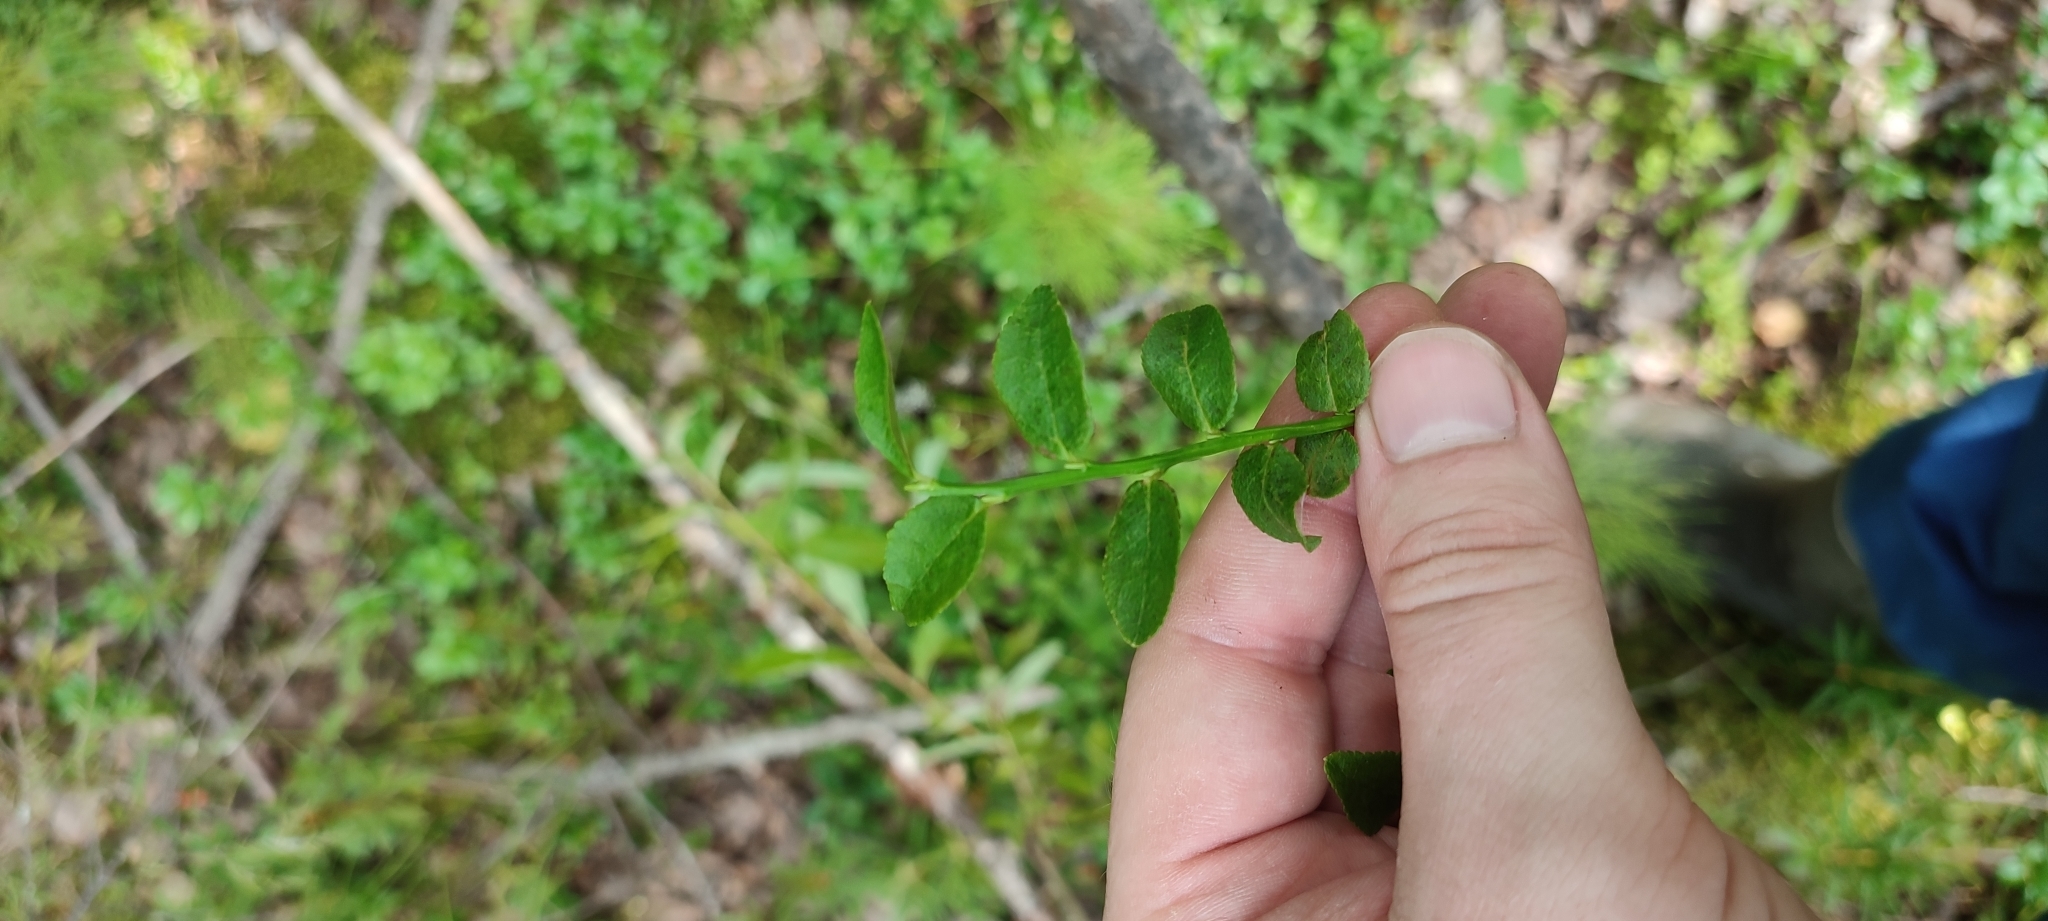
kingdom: Plantae
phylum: Tracheophyta
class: Magnoliopsida
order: Ericales
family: Ericaceae
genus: Vaccinium
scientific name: Vaccinium myrtillus
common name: Bilberry
